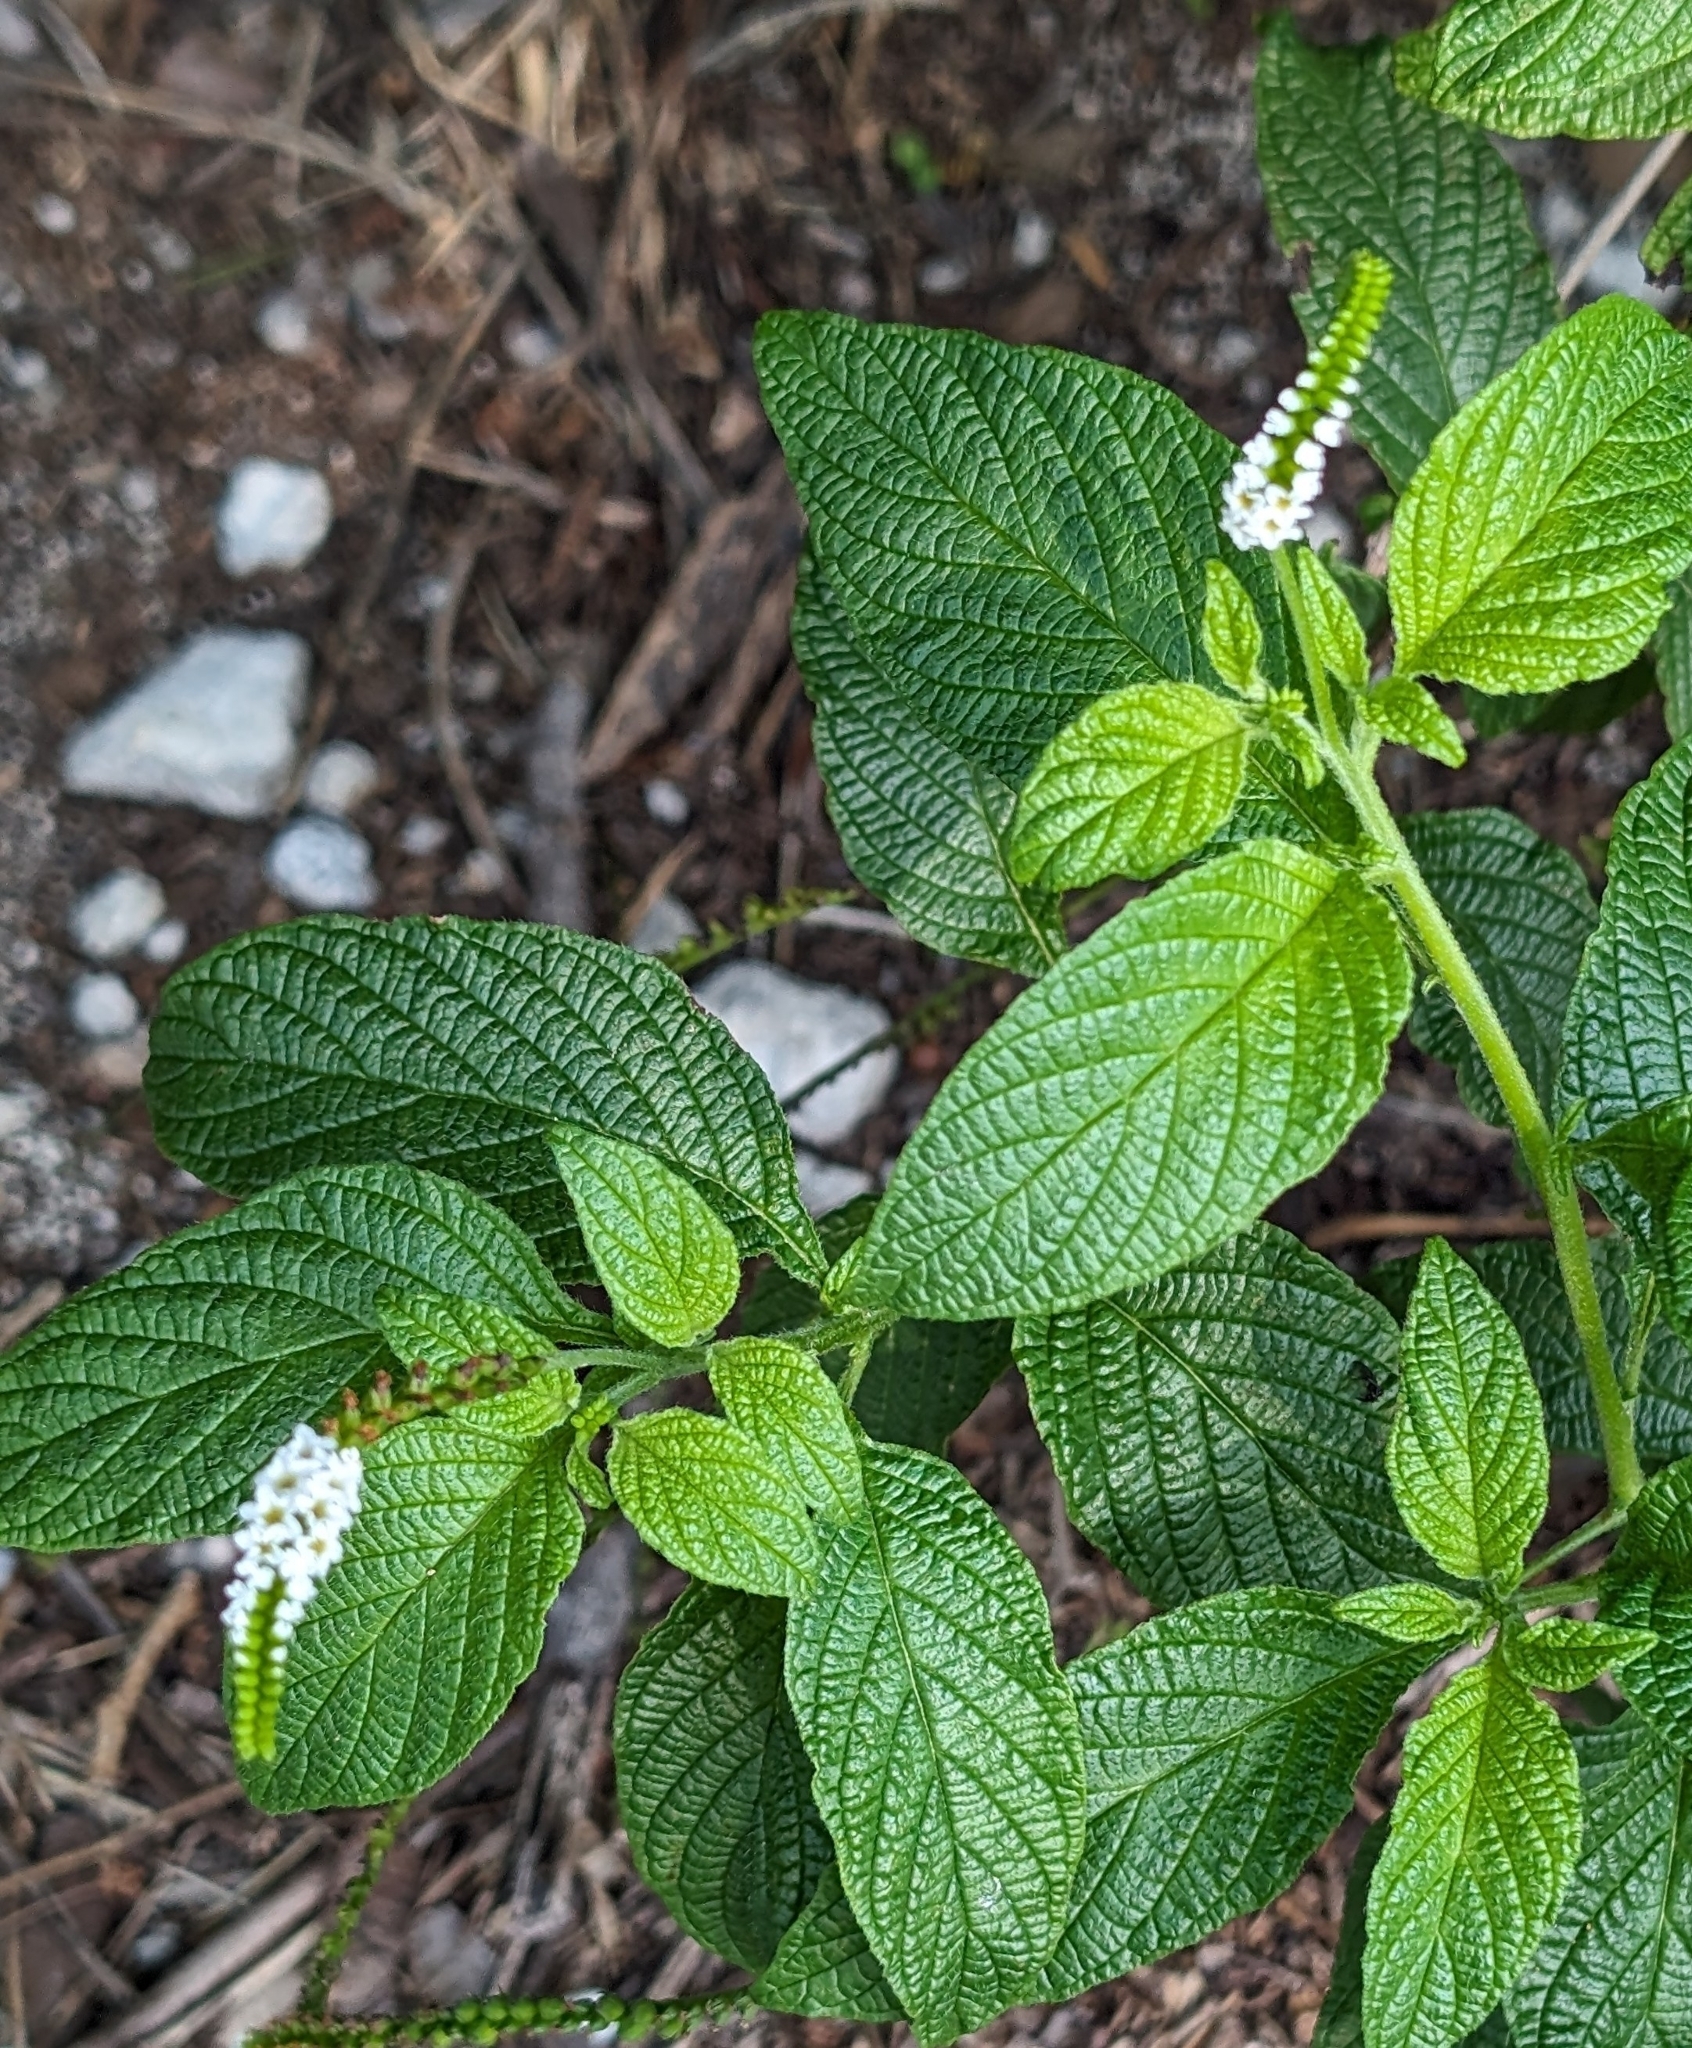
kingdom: Plantae
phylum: Tracheophyta
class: Magnoliopsida
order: Boraginales
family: Heliotropiaceae
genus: Heliotropium
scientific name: Heliotropium angiospermum
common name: Eye bright
